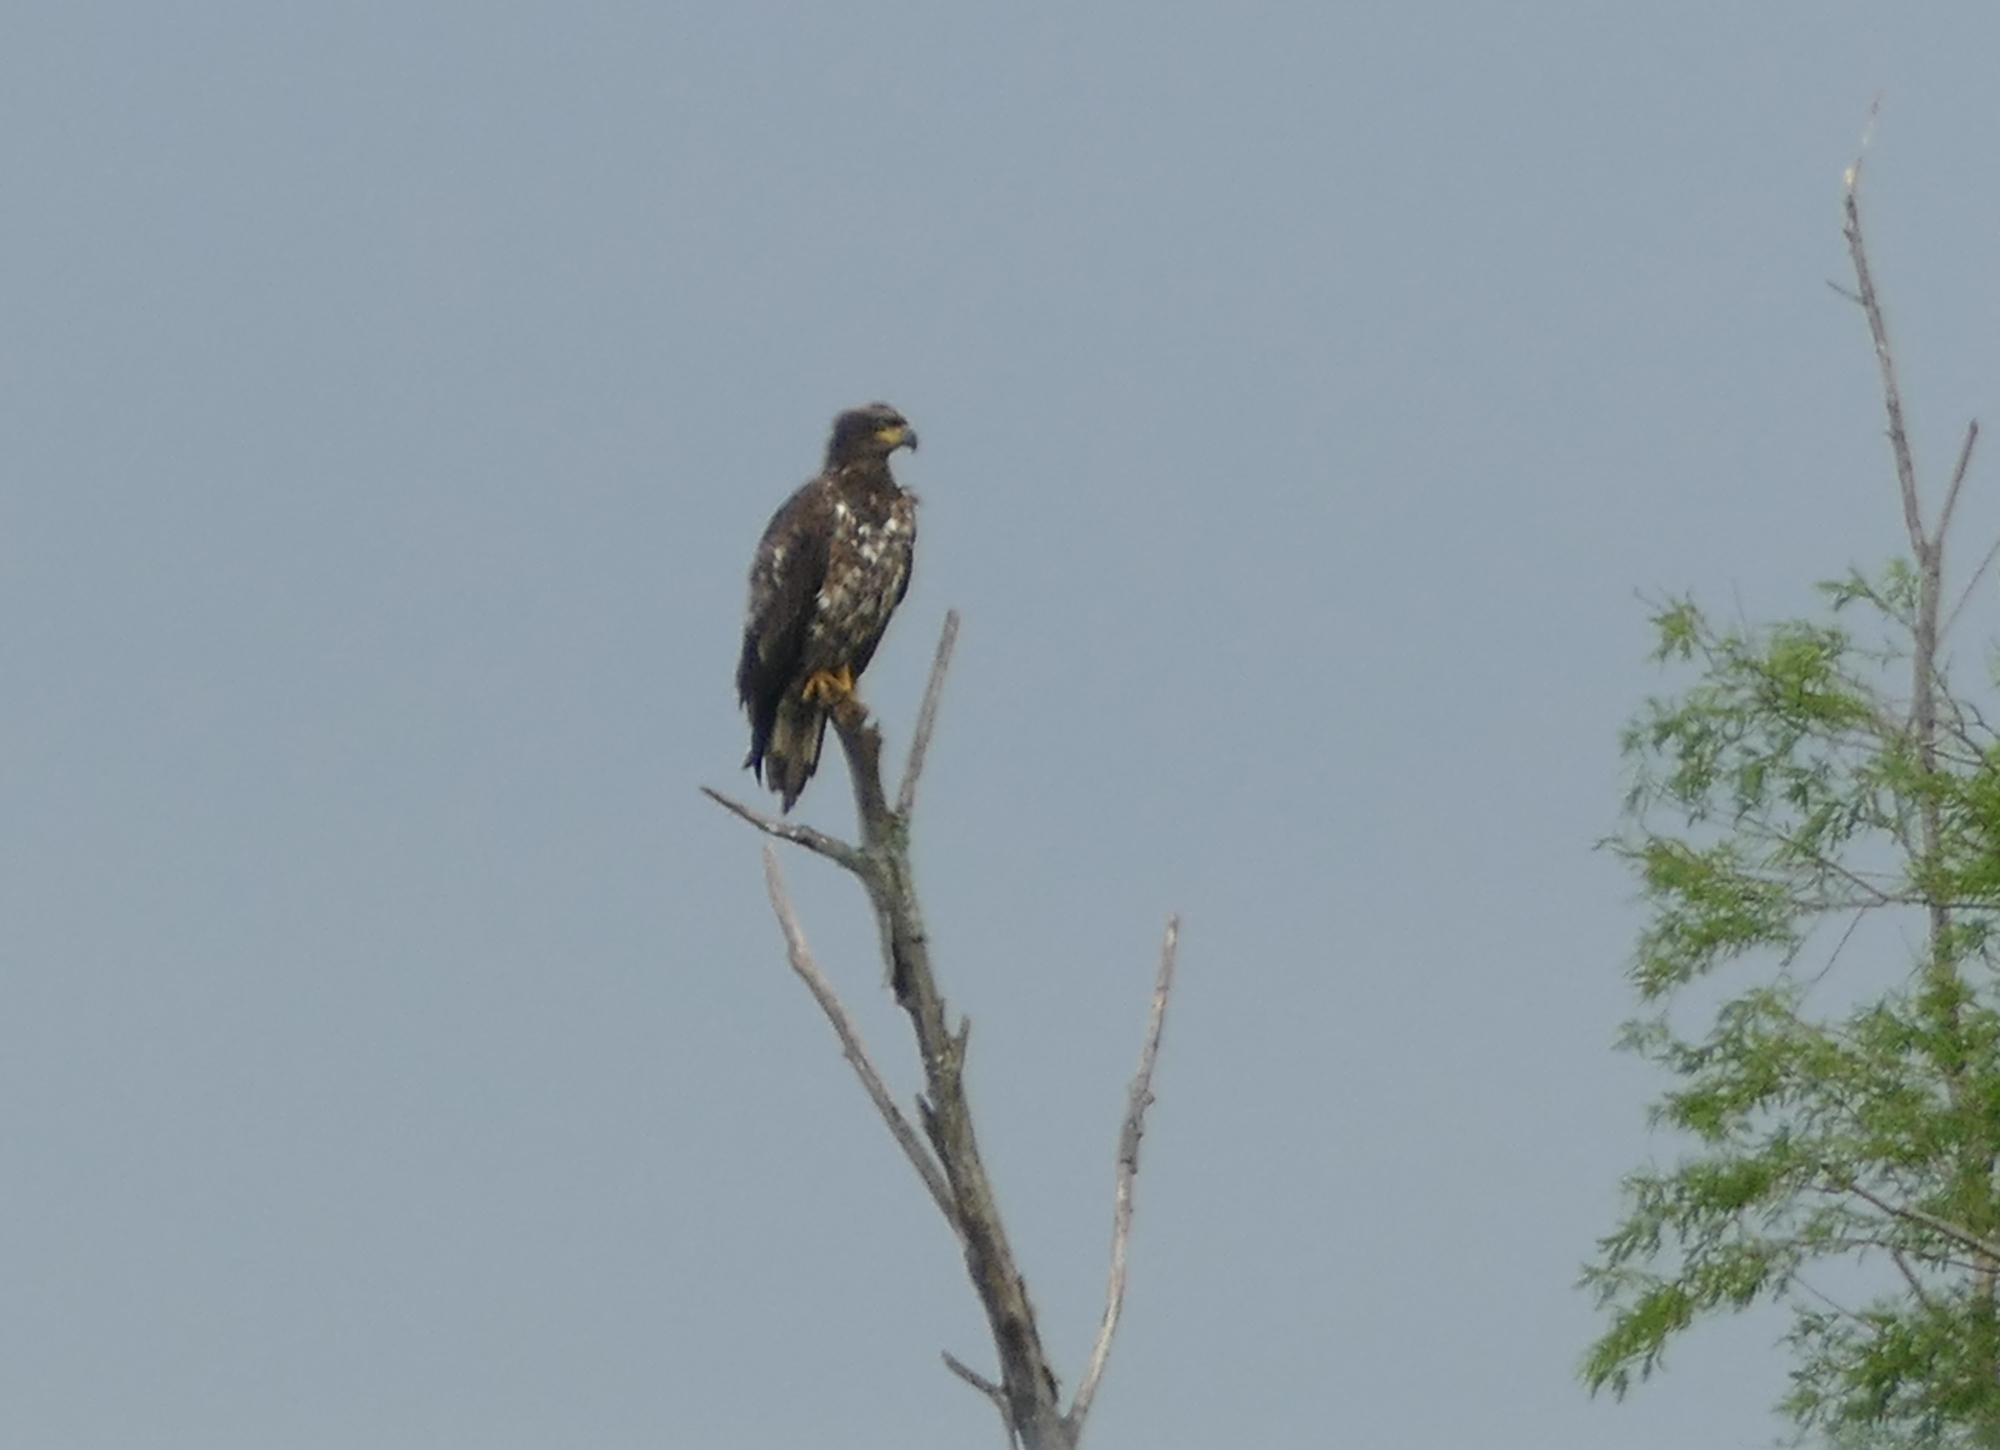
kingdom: Animalia
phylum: Chordata
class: Aves
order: Accipitriformes
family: Accipitridae
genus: Haliaeetus
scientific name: Haliaeetus leucocephalus
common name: Bald eagle
